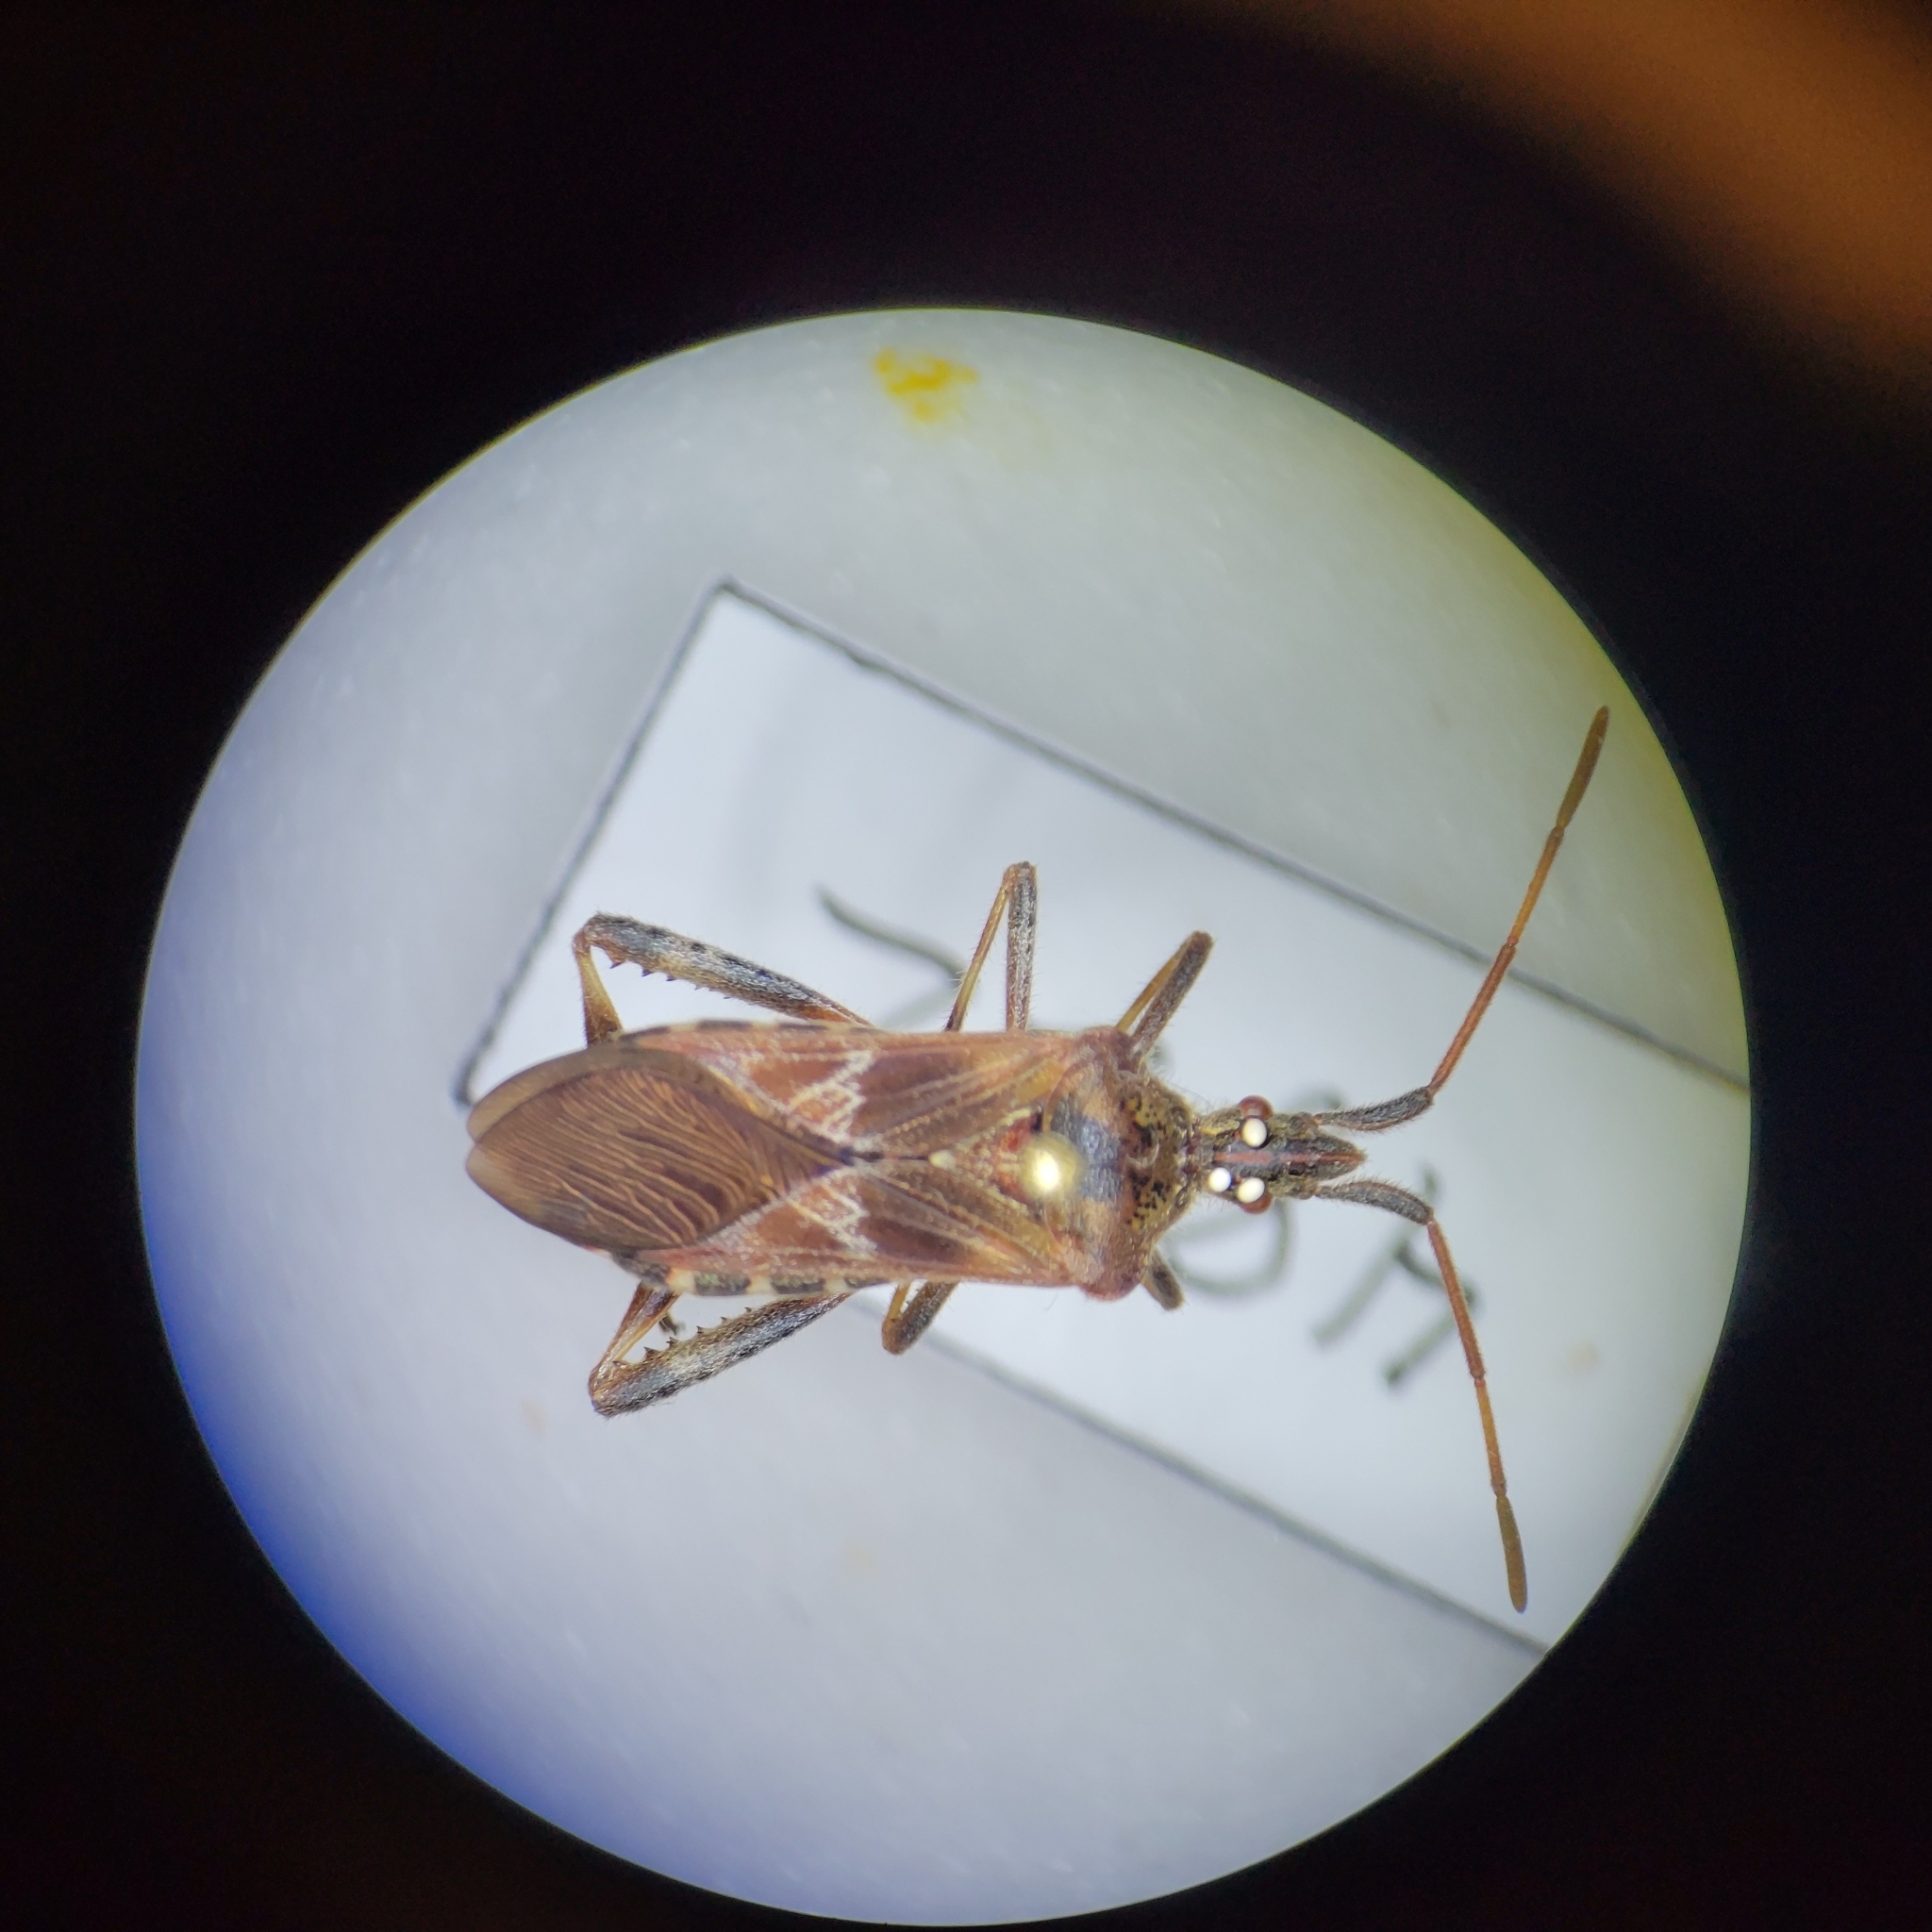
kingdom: Animalia
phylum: Arthropoda
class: Insecta
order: Hemiptera
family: Coreidae
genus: Leptoglossus
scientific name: Leptoglossus occidentalis
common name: Western conifer-seed bug
